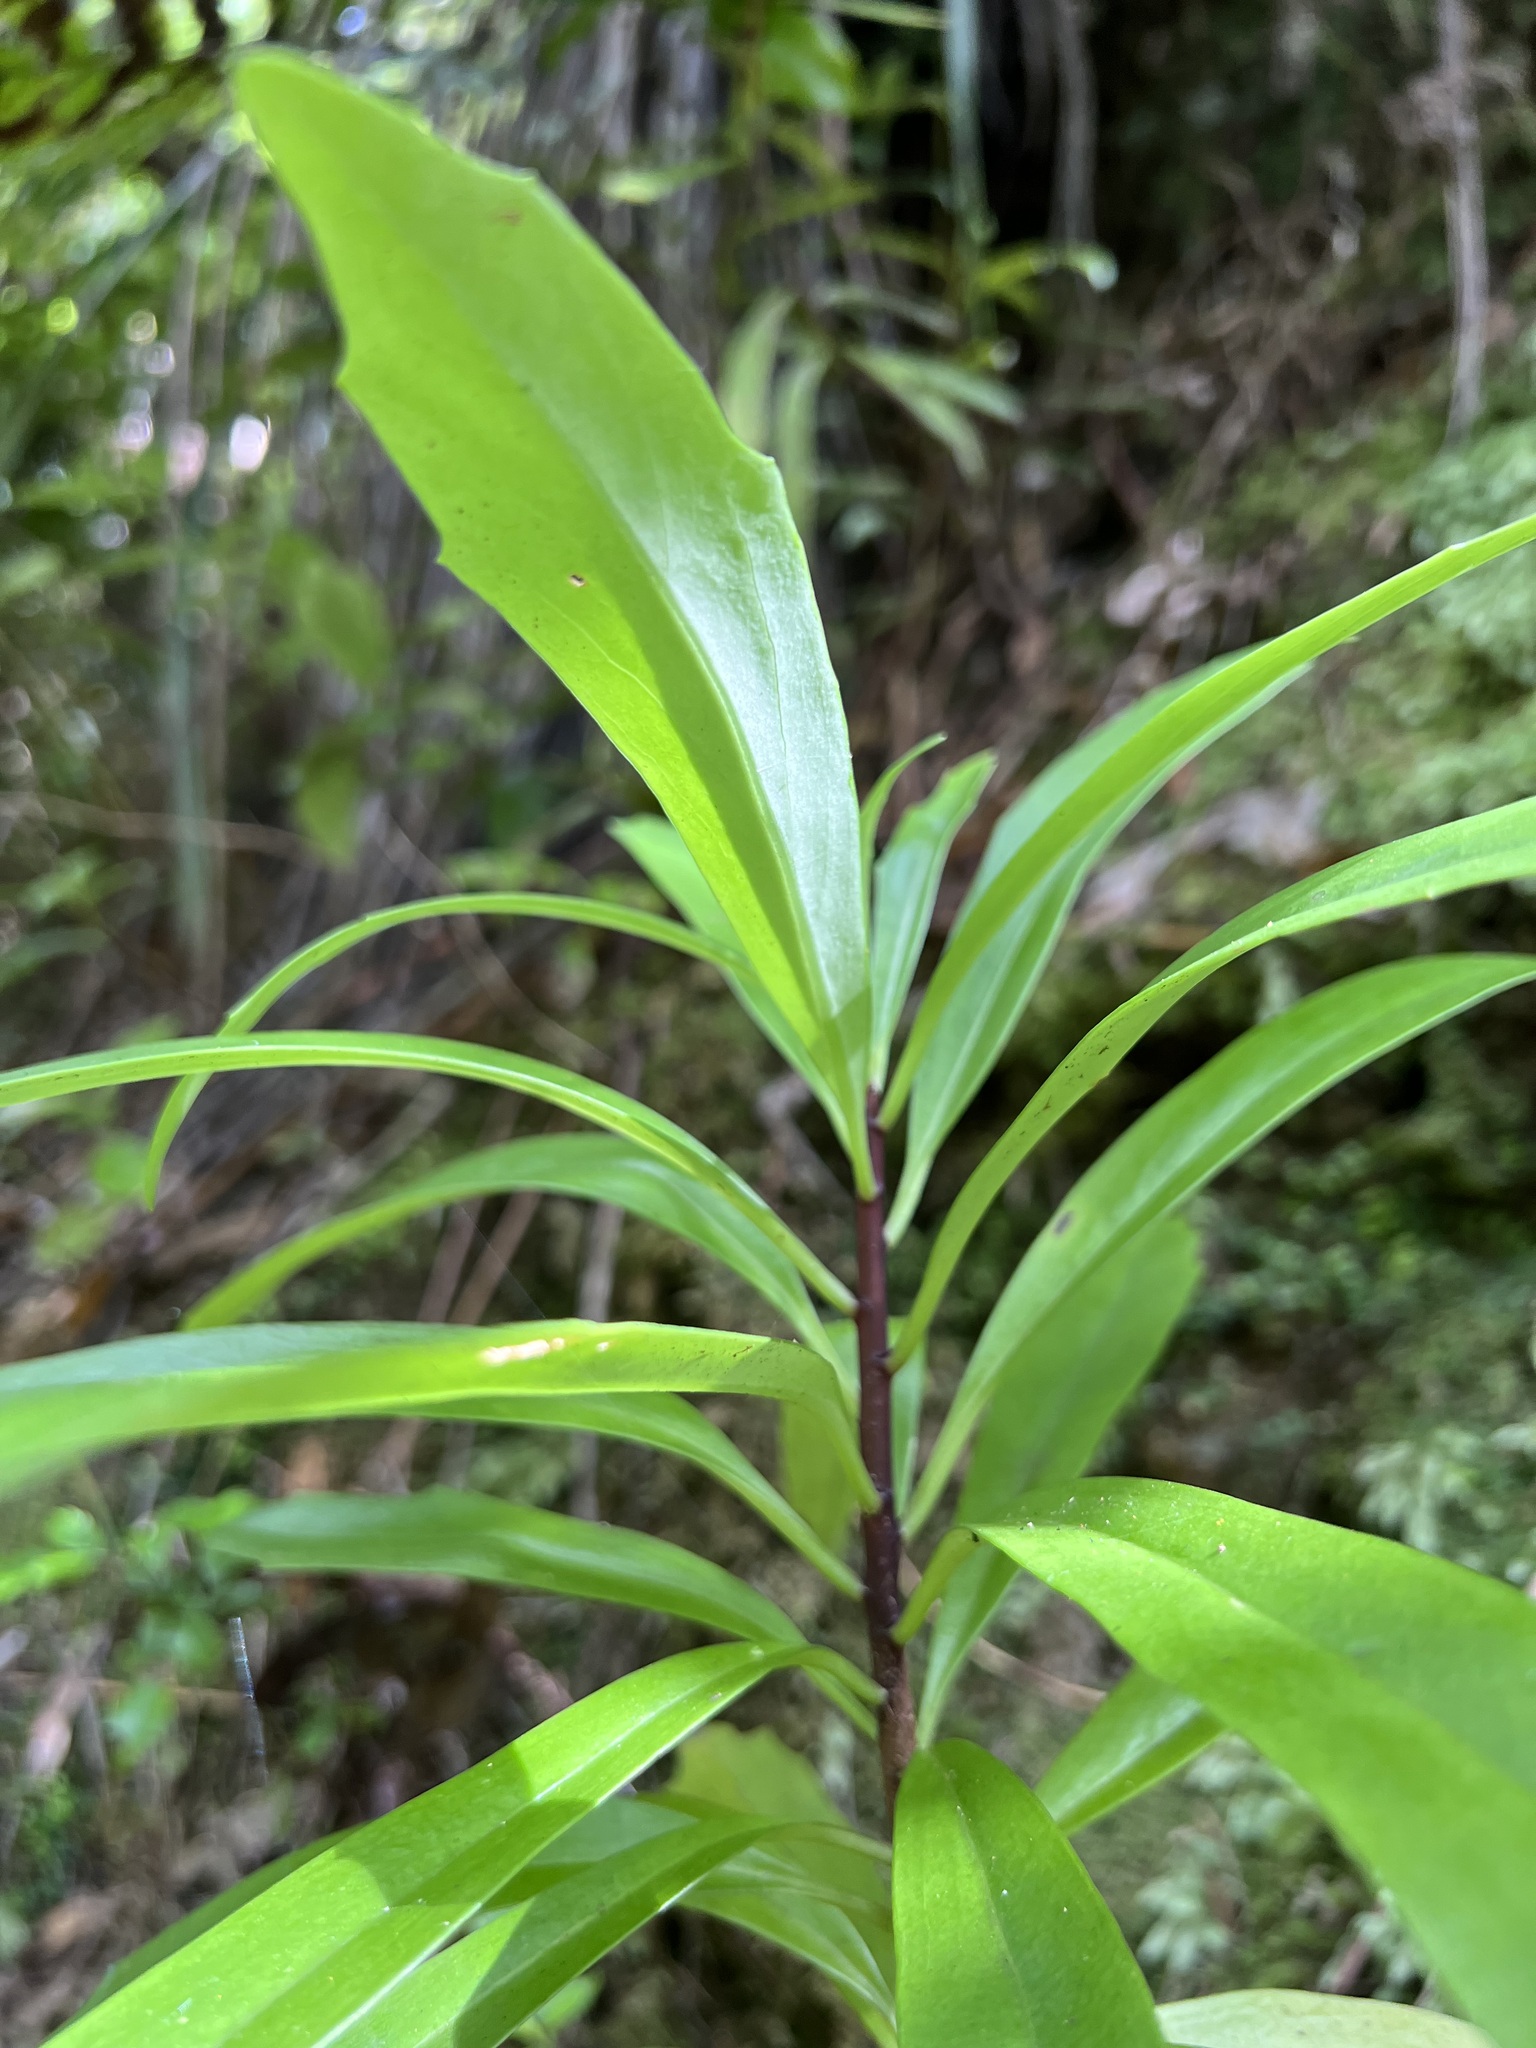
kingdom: Plantae
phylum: Tracheophyta
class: Magnoliopsida
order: Asterales
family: Asteraceae
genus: Brachyglottis
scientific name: Brachyglottis kirkii
